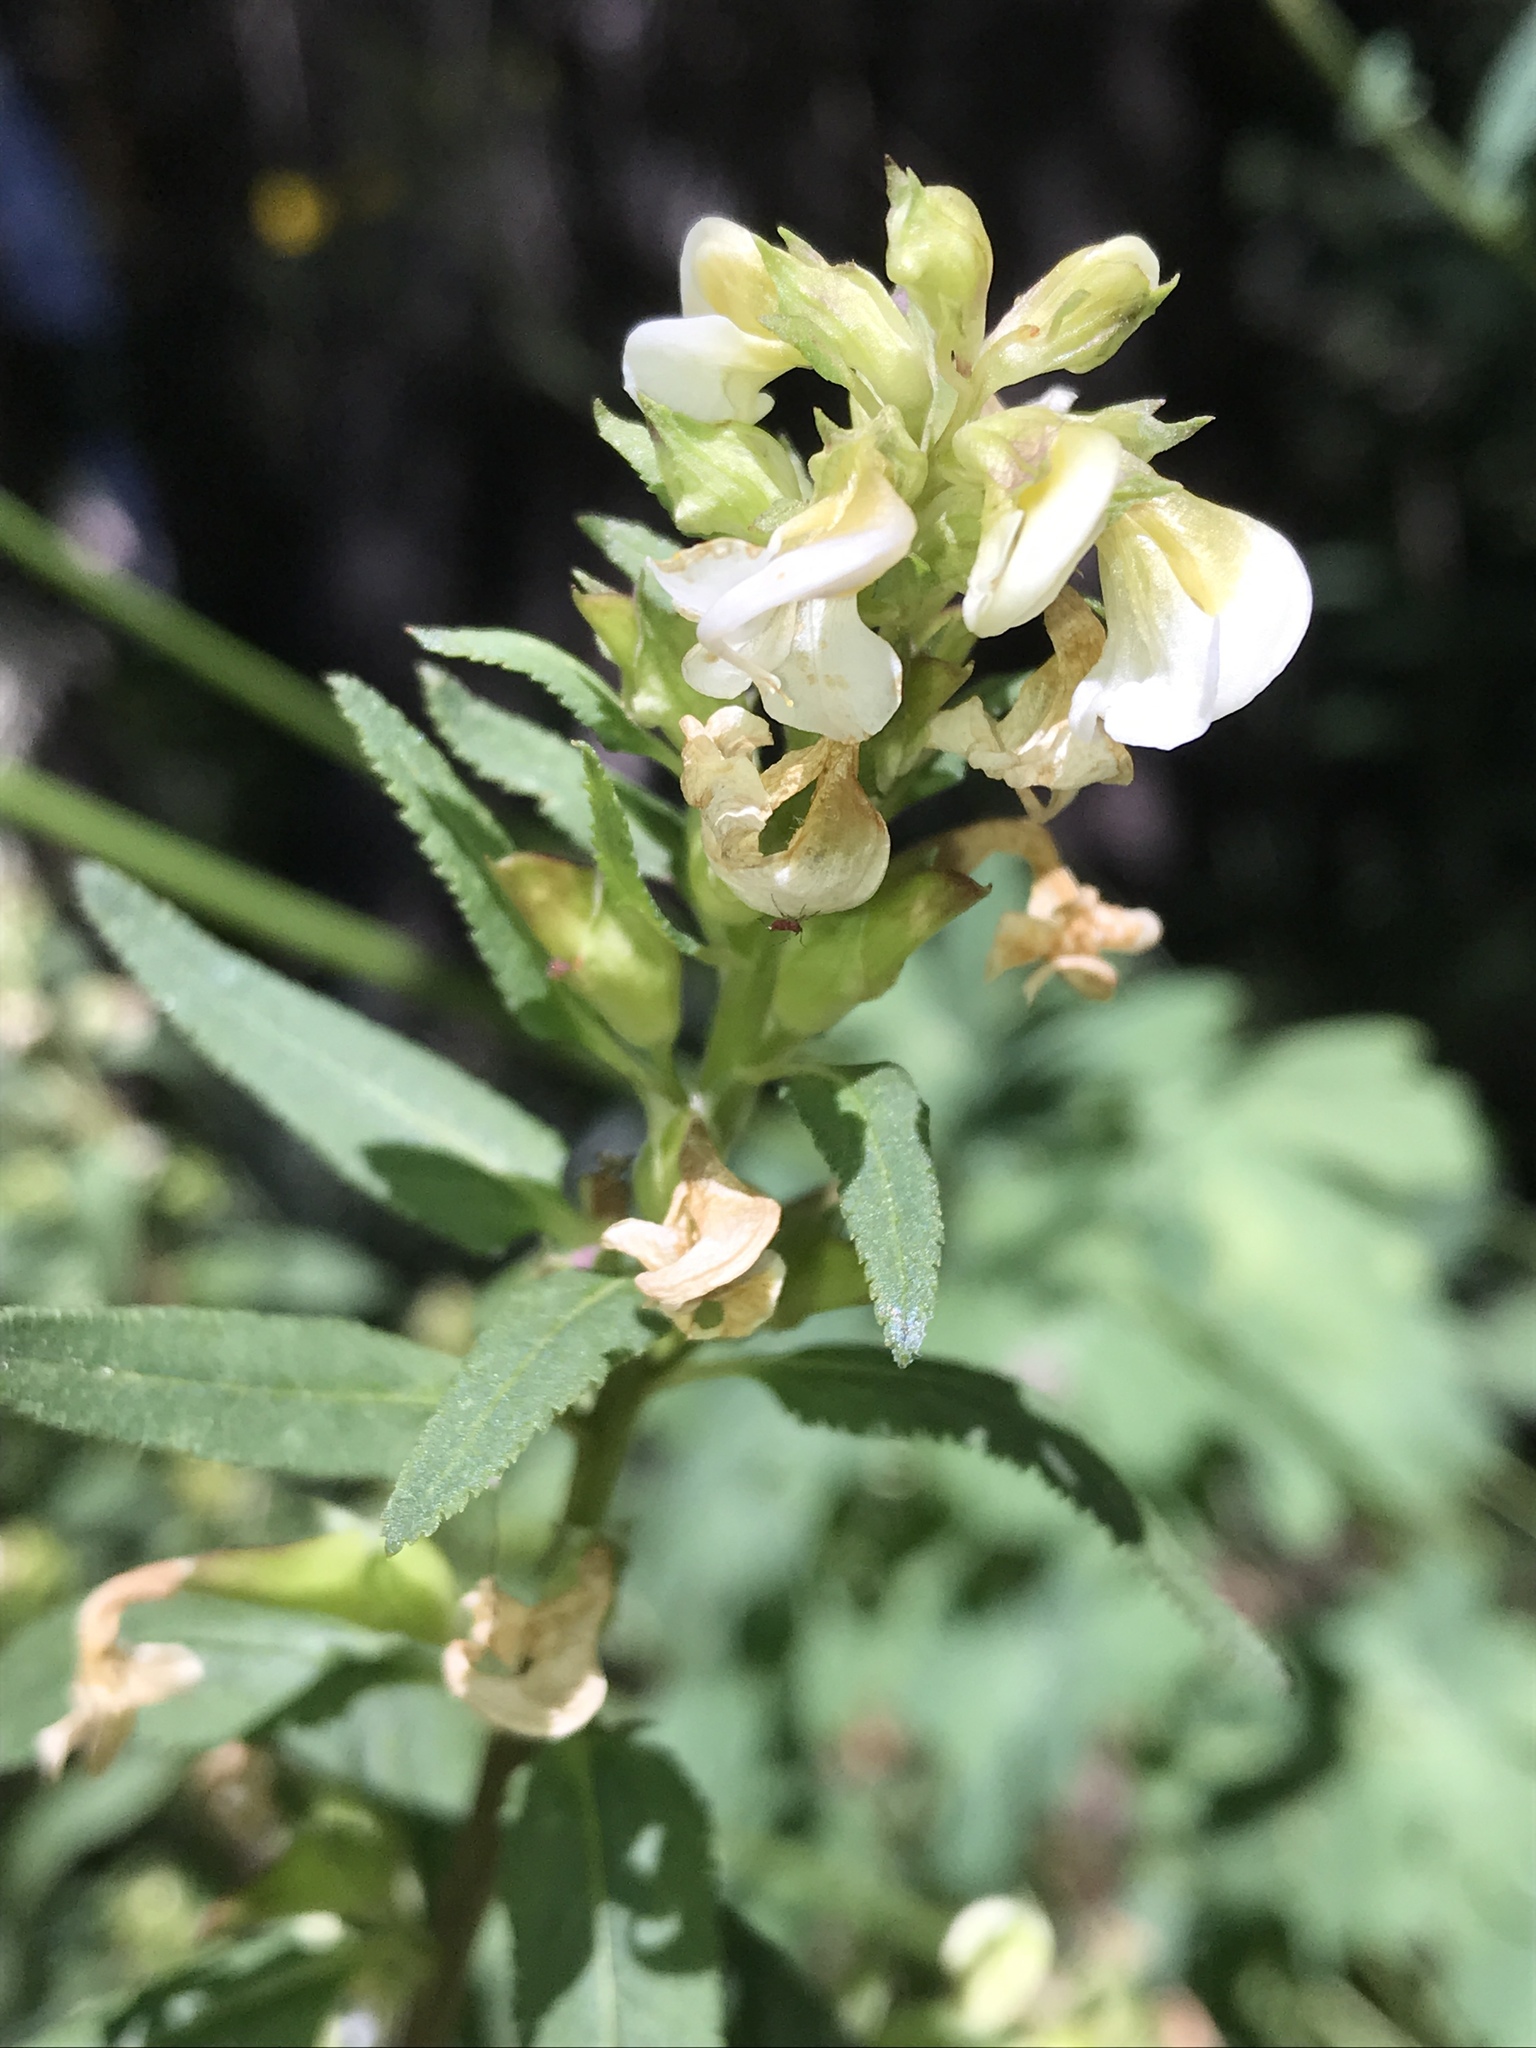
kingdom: Plantae
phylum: Tracheophyta
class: Magnoliopsida
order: Lamiales
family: Orobanchaceae
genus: Pedicularis
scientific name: Pedicularis racemosa
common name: Leafy lousewort
